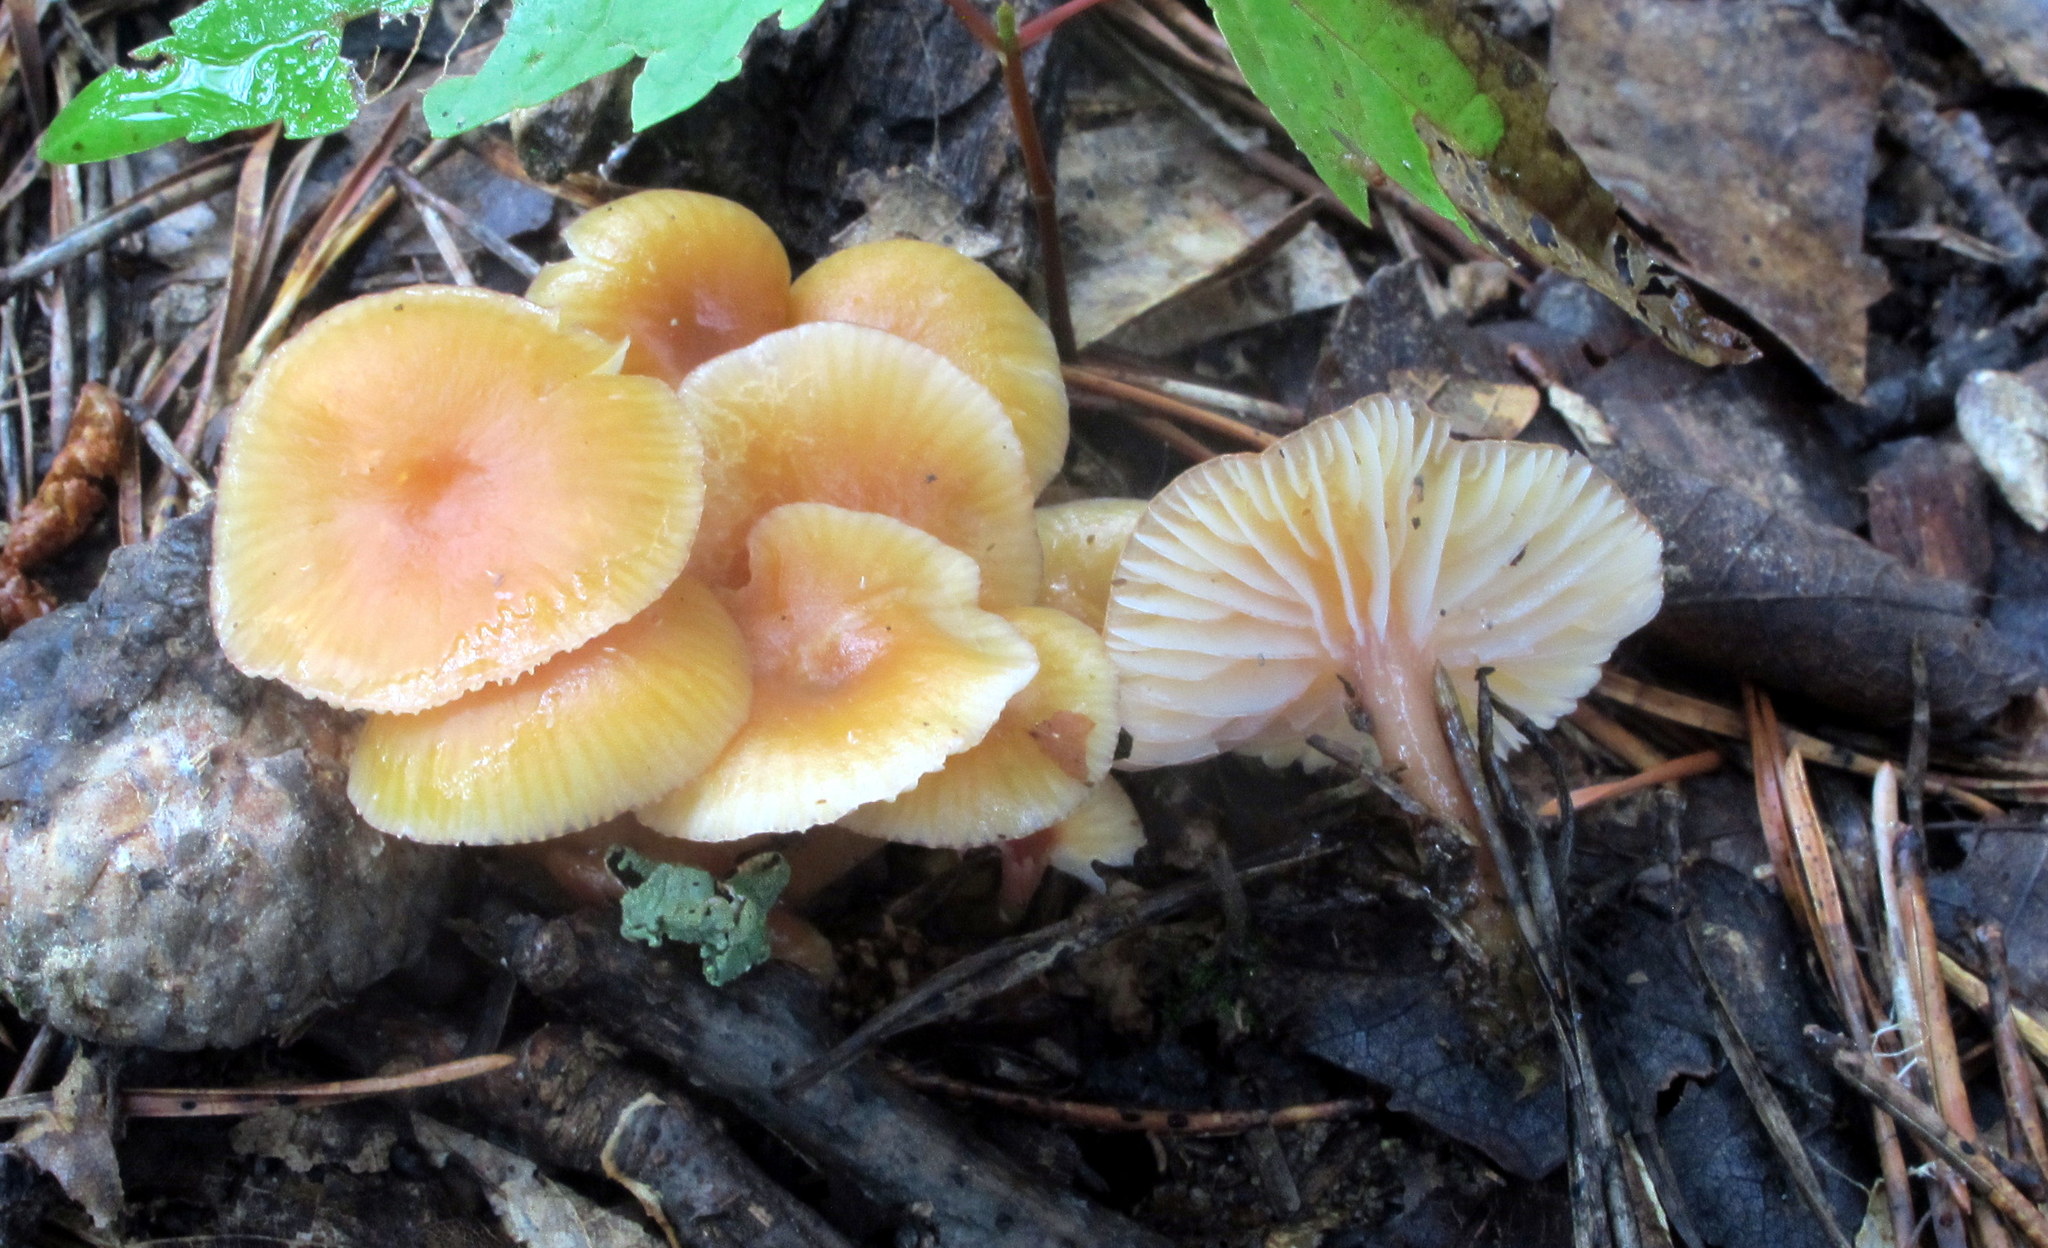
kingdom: Fungi
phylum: Basidiomycota
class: Agaricomycetes
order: Agaricales
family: Hygrophoraceae
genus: Gliophorus
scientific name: Gliophorus laetus
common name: Heath waxcap
